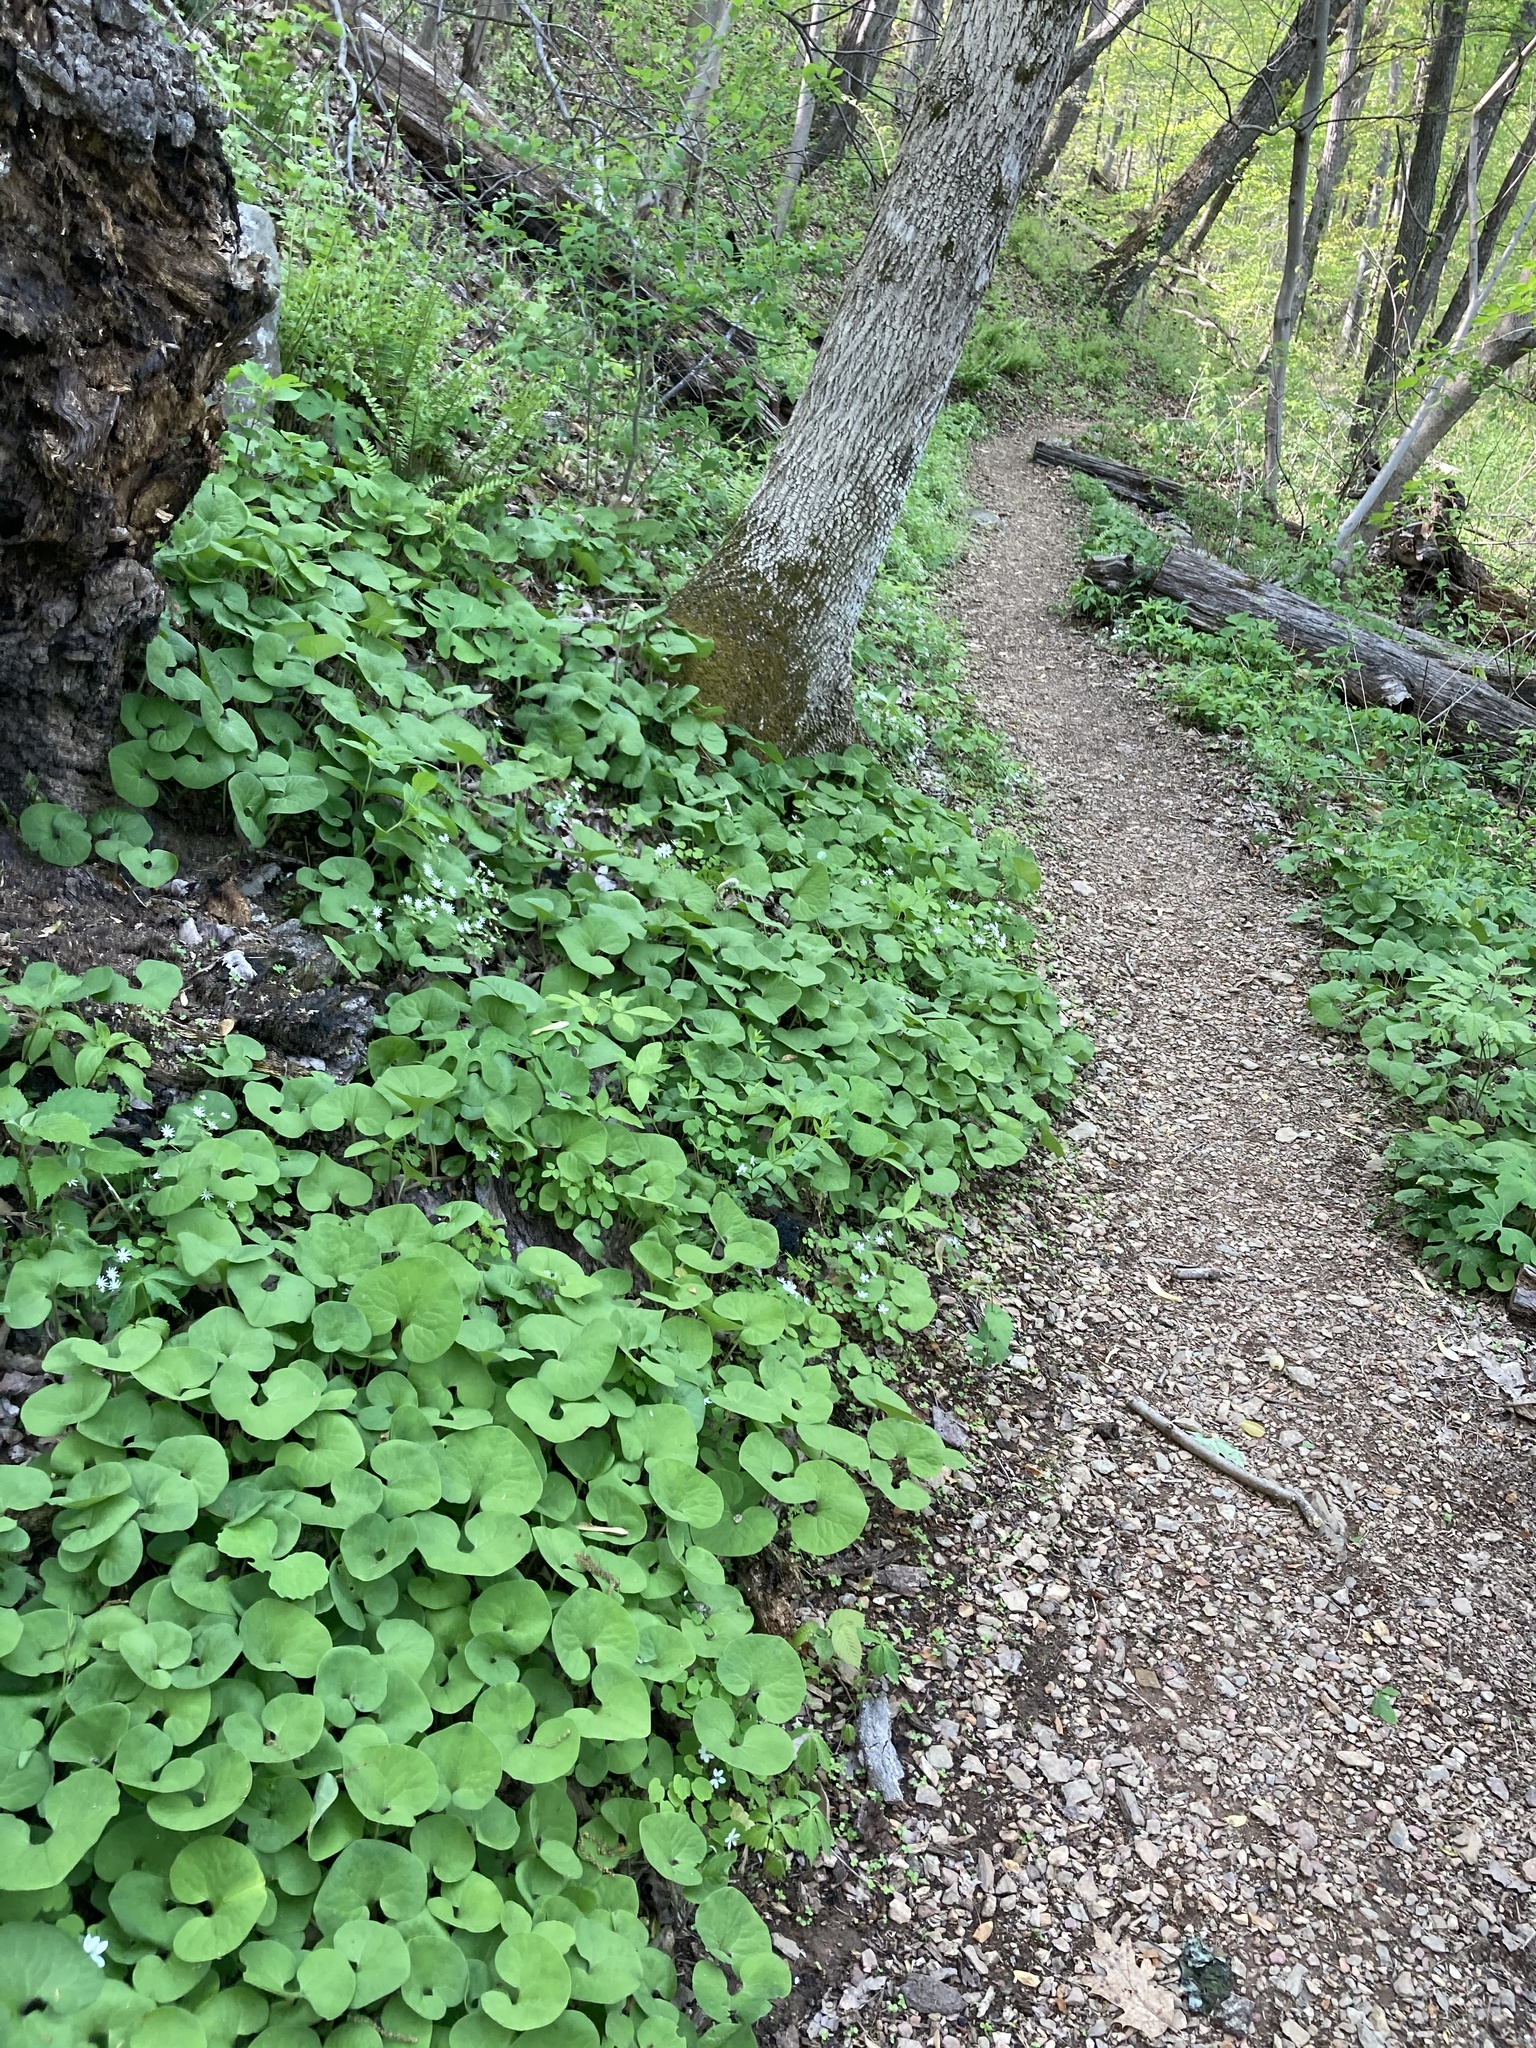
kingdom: Plantae
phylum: Tracheophyta
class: Magnoliopsida
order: Piperales
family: Aristolochiaceae
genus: Asarum
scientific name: Asarum canadense
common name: Wild ginger
